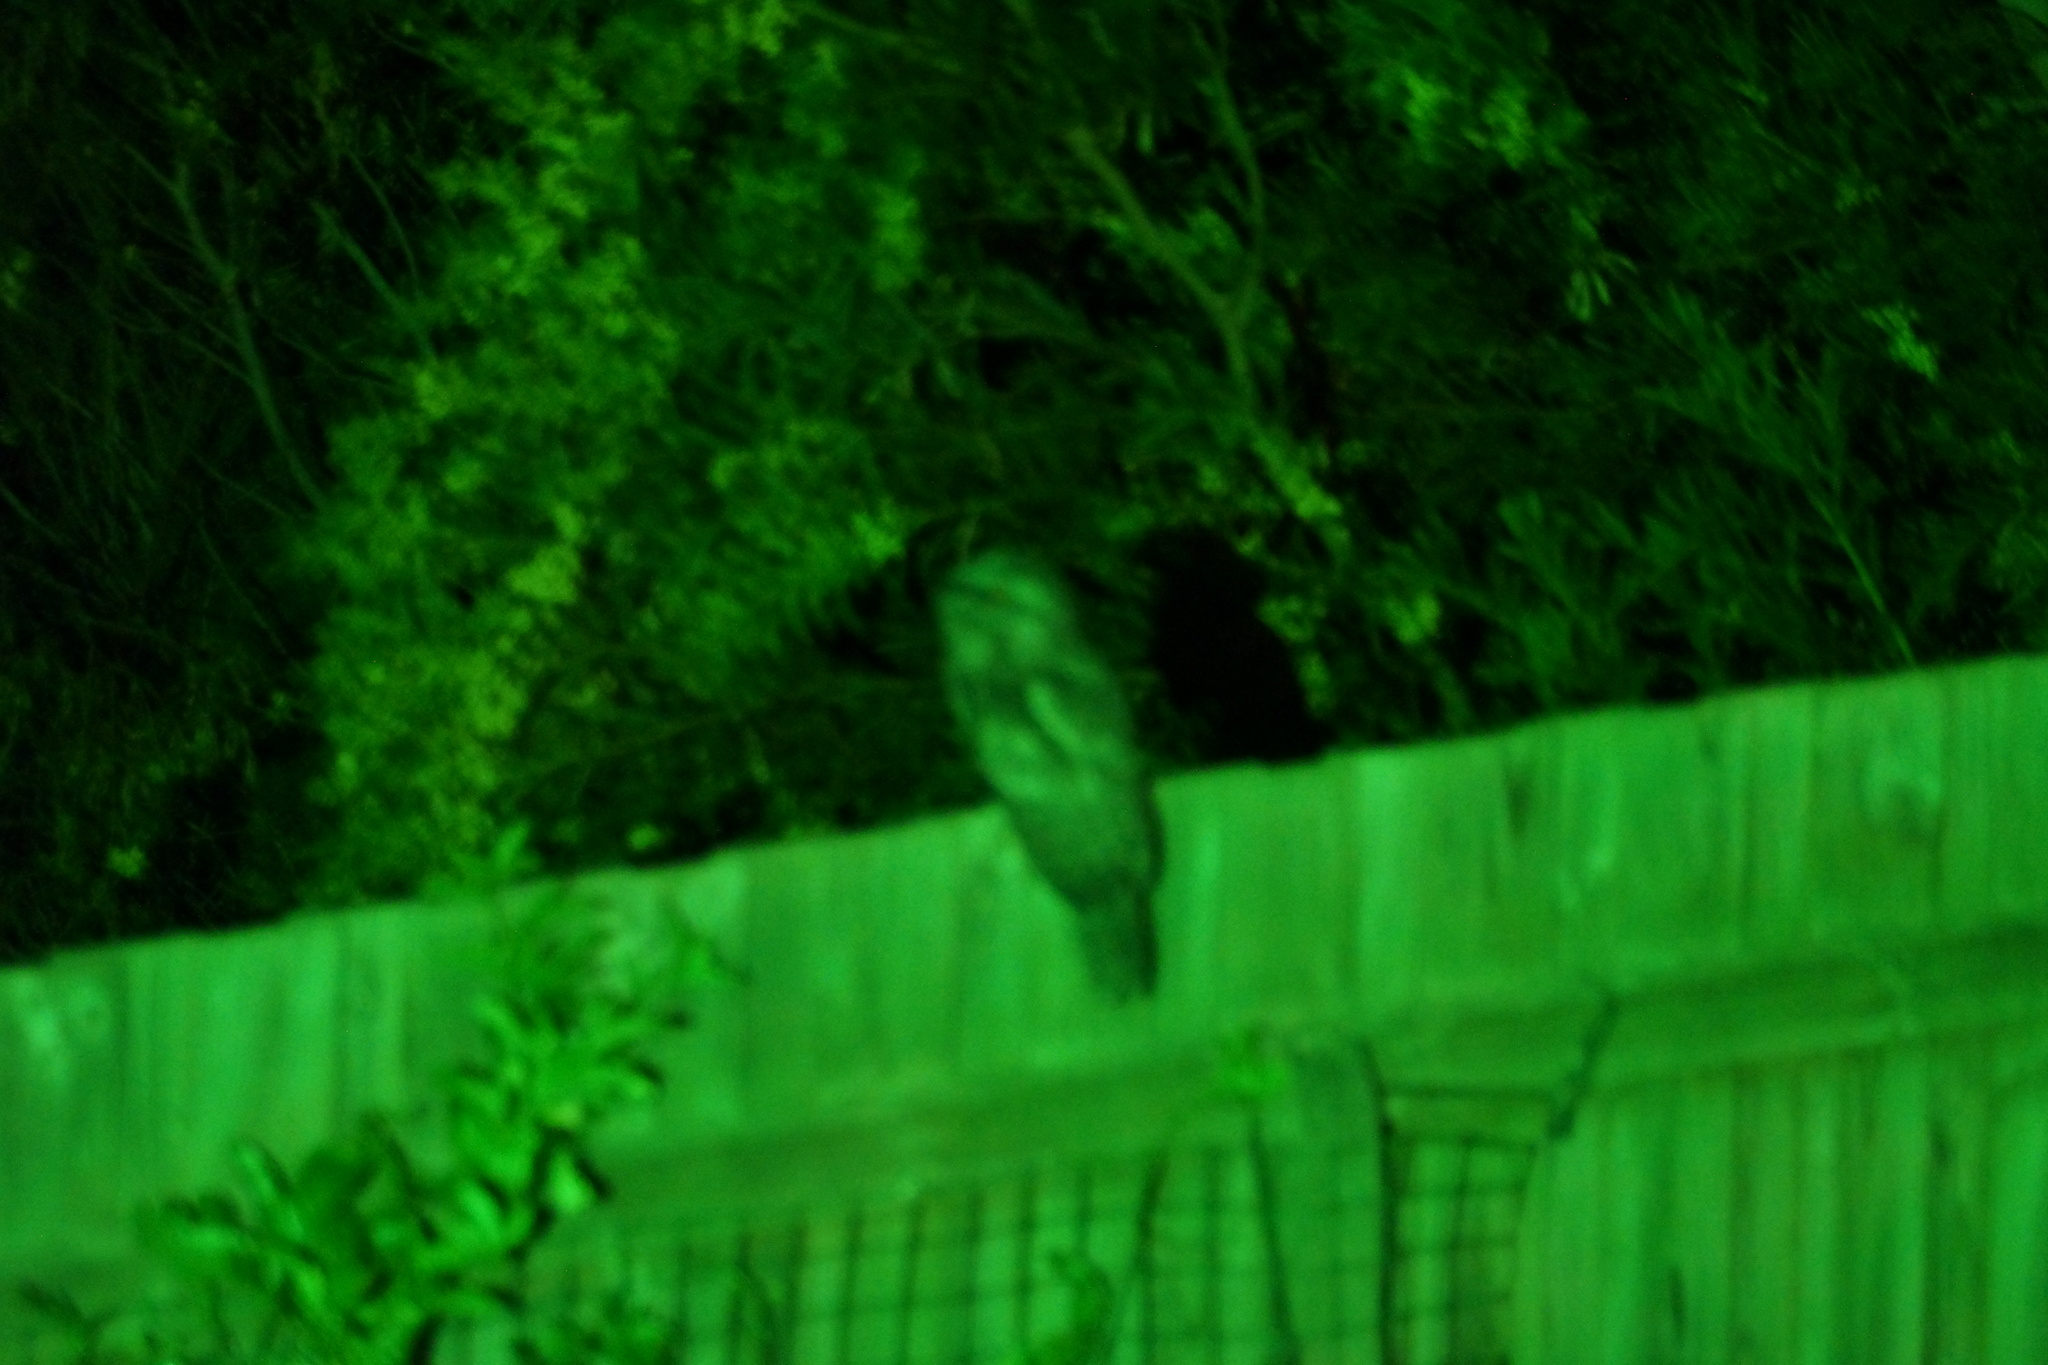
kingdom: Animalia
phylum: Chordata
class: Aves
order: Caprimulgiformes
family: Podargidae
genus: Podargus
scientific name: Podargus strigoides
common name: Tawny frogmouth
